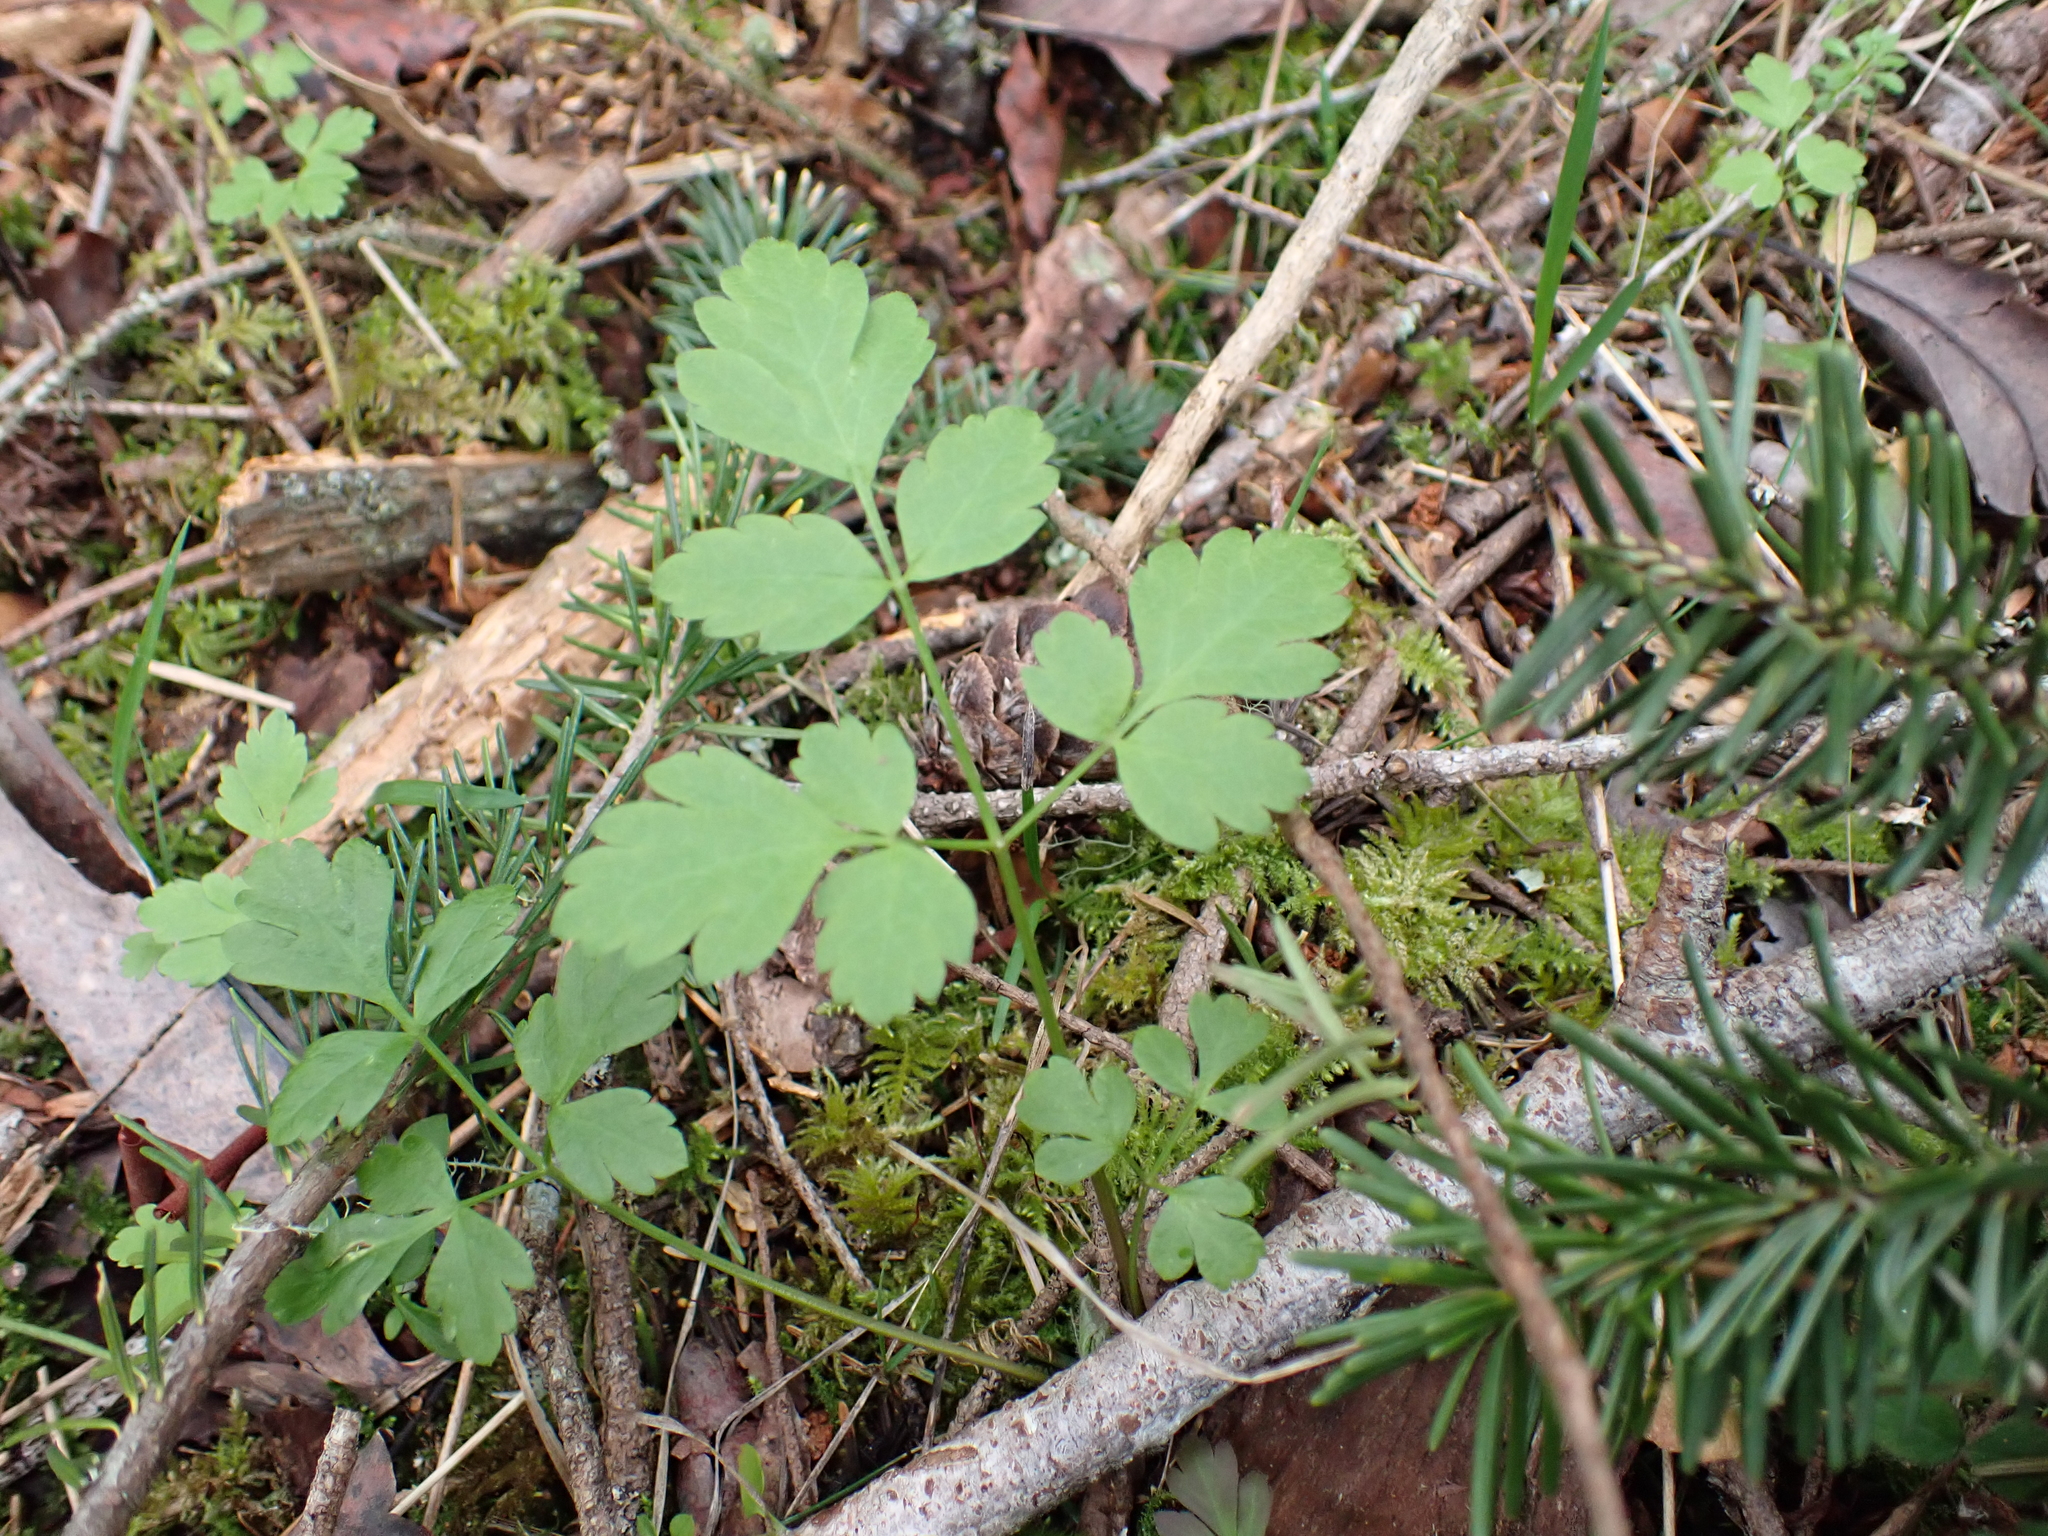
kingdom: Plantae
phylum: Tracheophyta
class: Magnoliopsida
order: Apiales
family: Apiaceae
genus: Osmorhiza
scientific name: Osmorhiza berteroi
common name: Mountain sweet cicely
